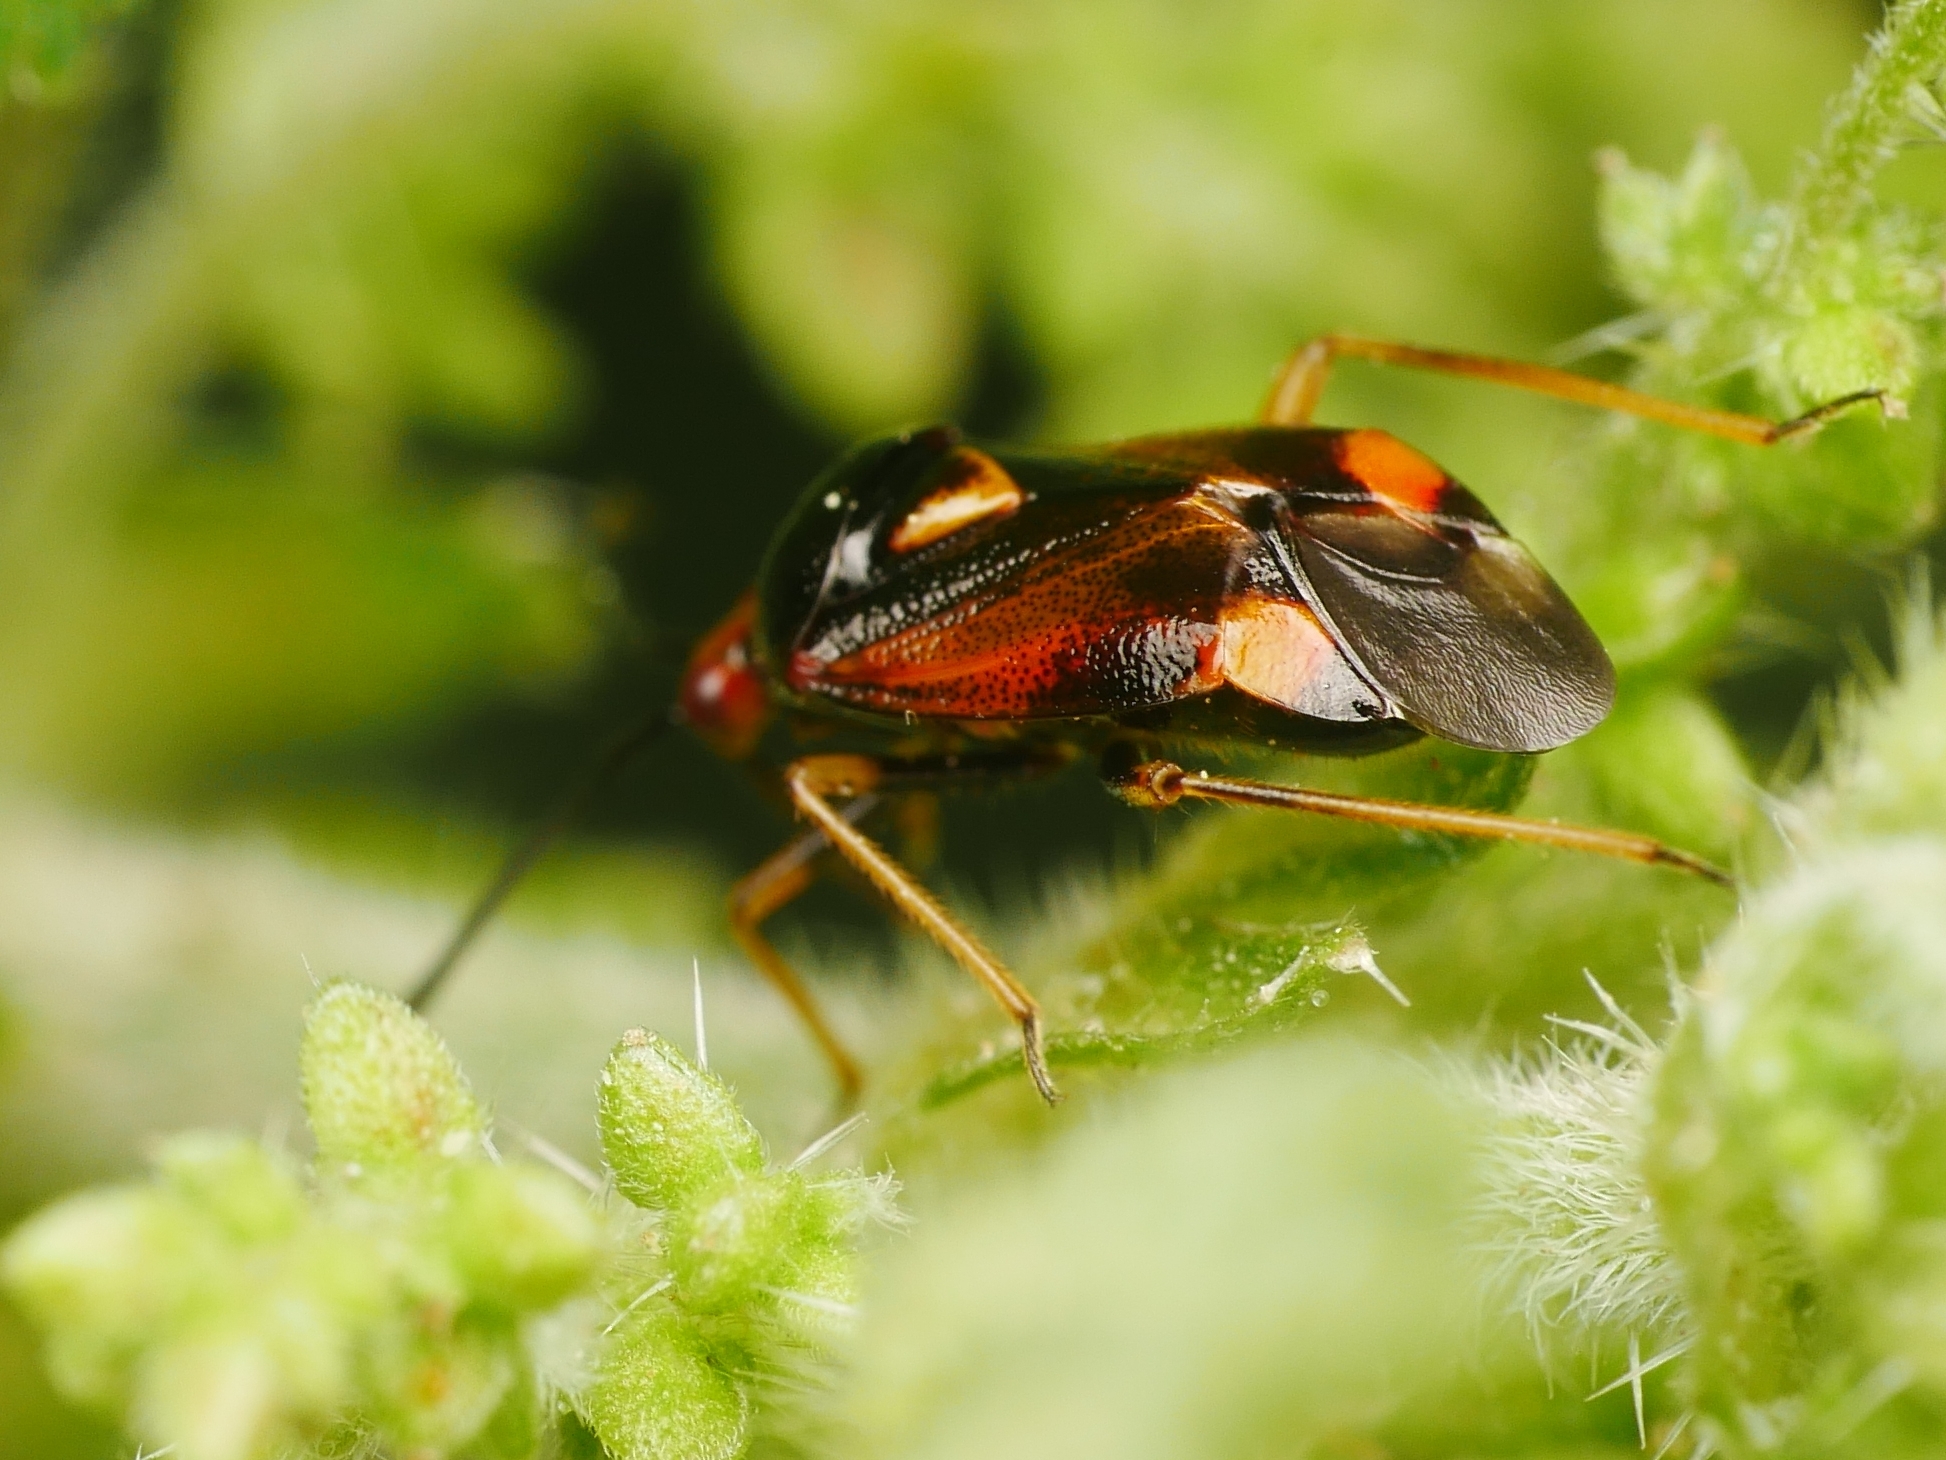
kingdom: Animalia
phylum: Arthropoda
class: Insecta
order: Hemiptera
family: Miridae
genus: Deraeocoris
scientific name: Deraeocoris ruber
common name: Plant bug
